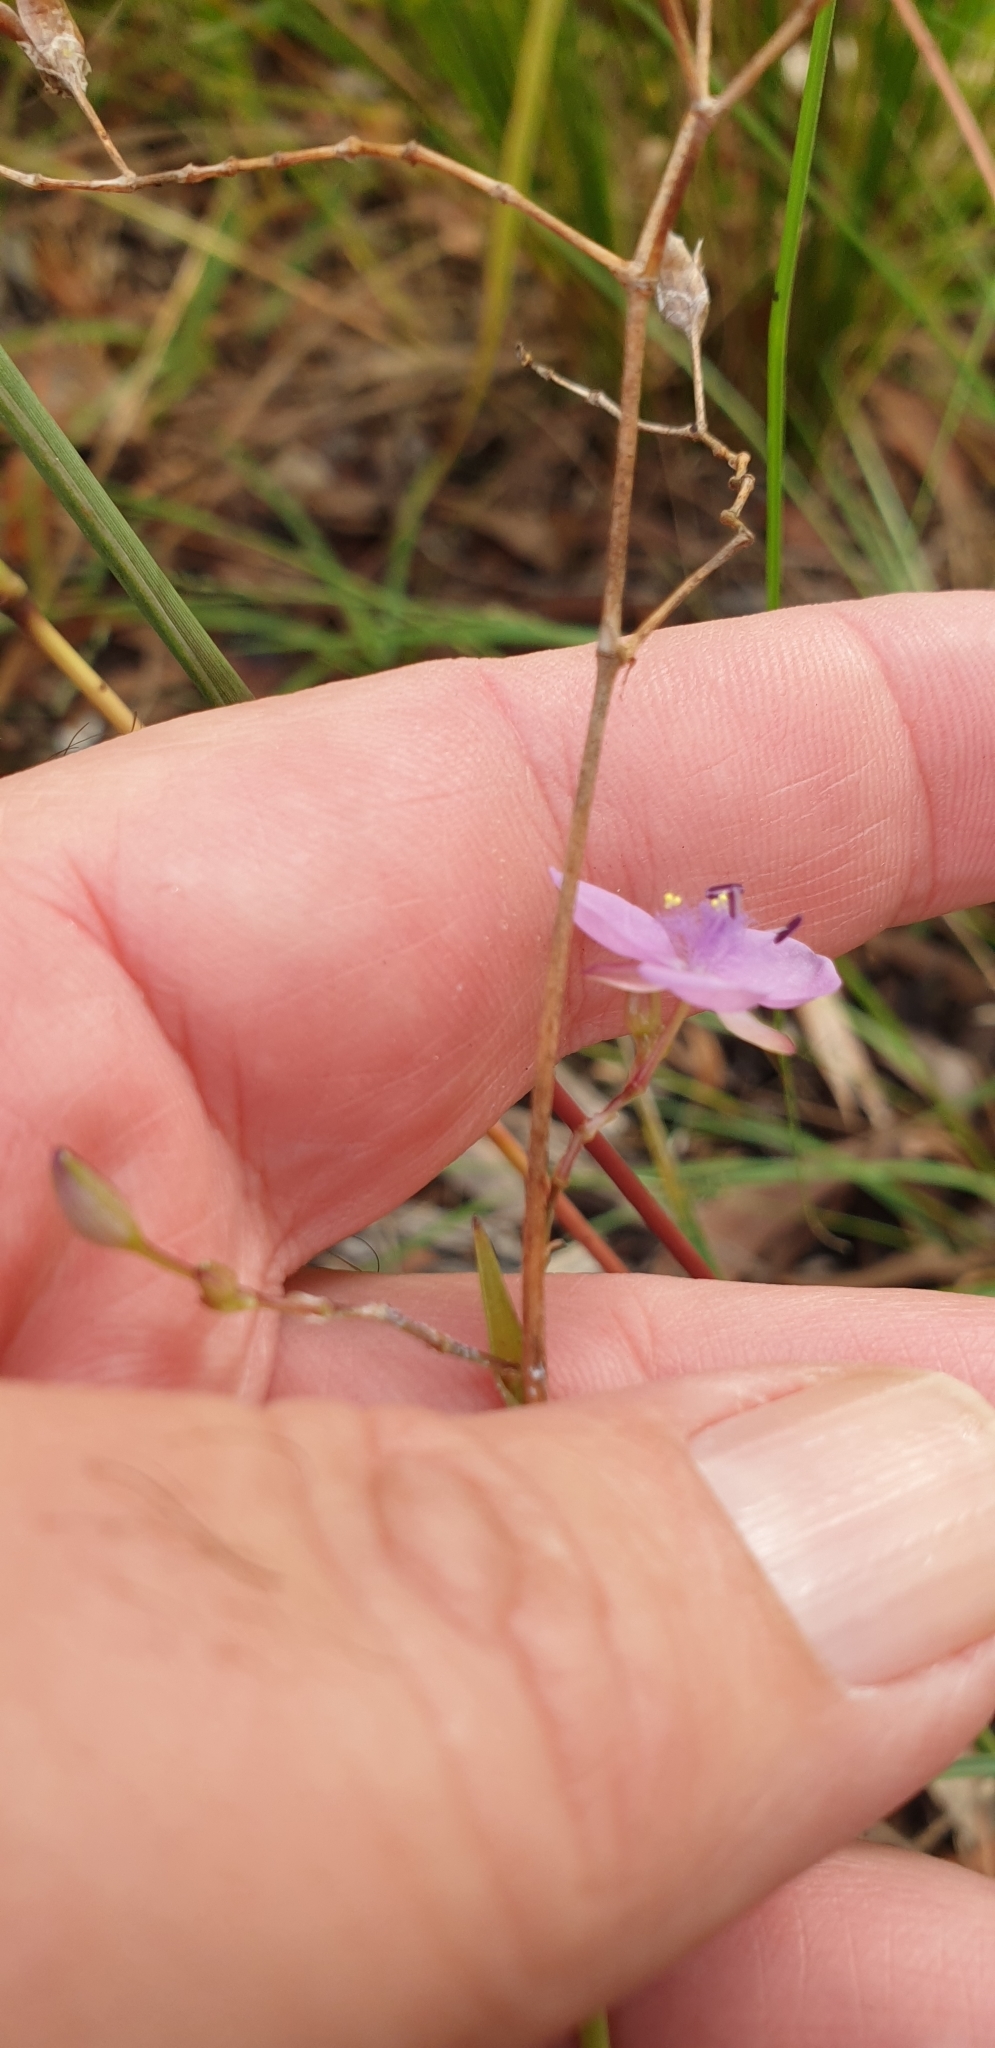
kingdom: Plantae
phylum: Tracheophyta
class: Liliopsida
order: Commelinales
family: Commelinaceae
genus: Murdannia
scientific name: Murdannia graminea
